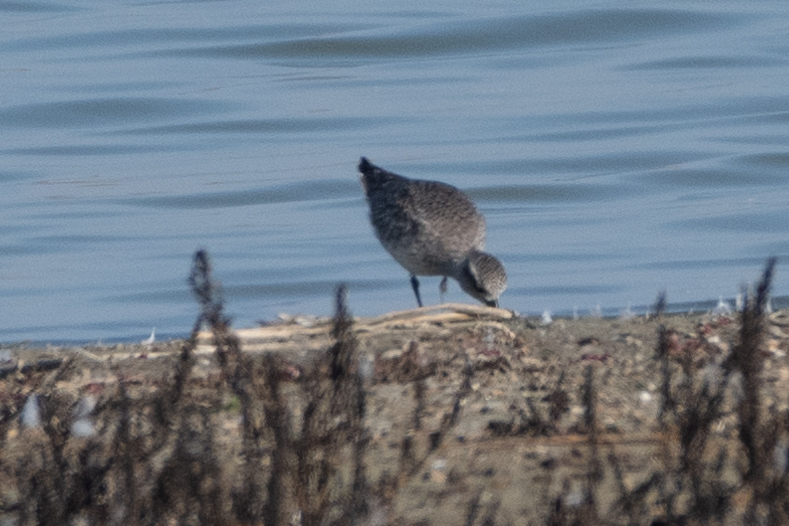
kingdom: Animalia
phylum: Chordata
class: Aves
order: Charadriiformes
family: Charadriidae
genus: Pluvialis
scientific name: Pluvialis squatarola
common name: Grey plover
